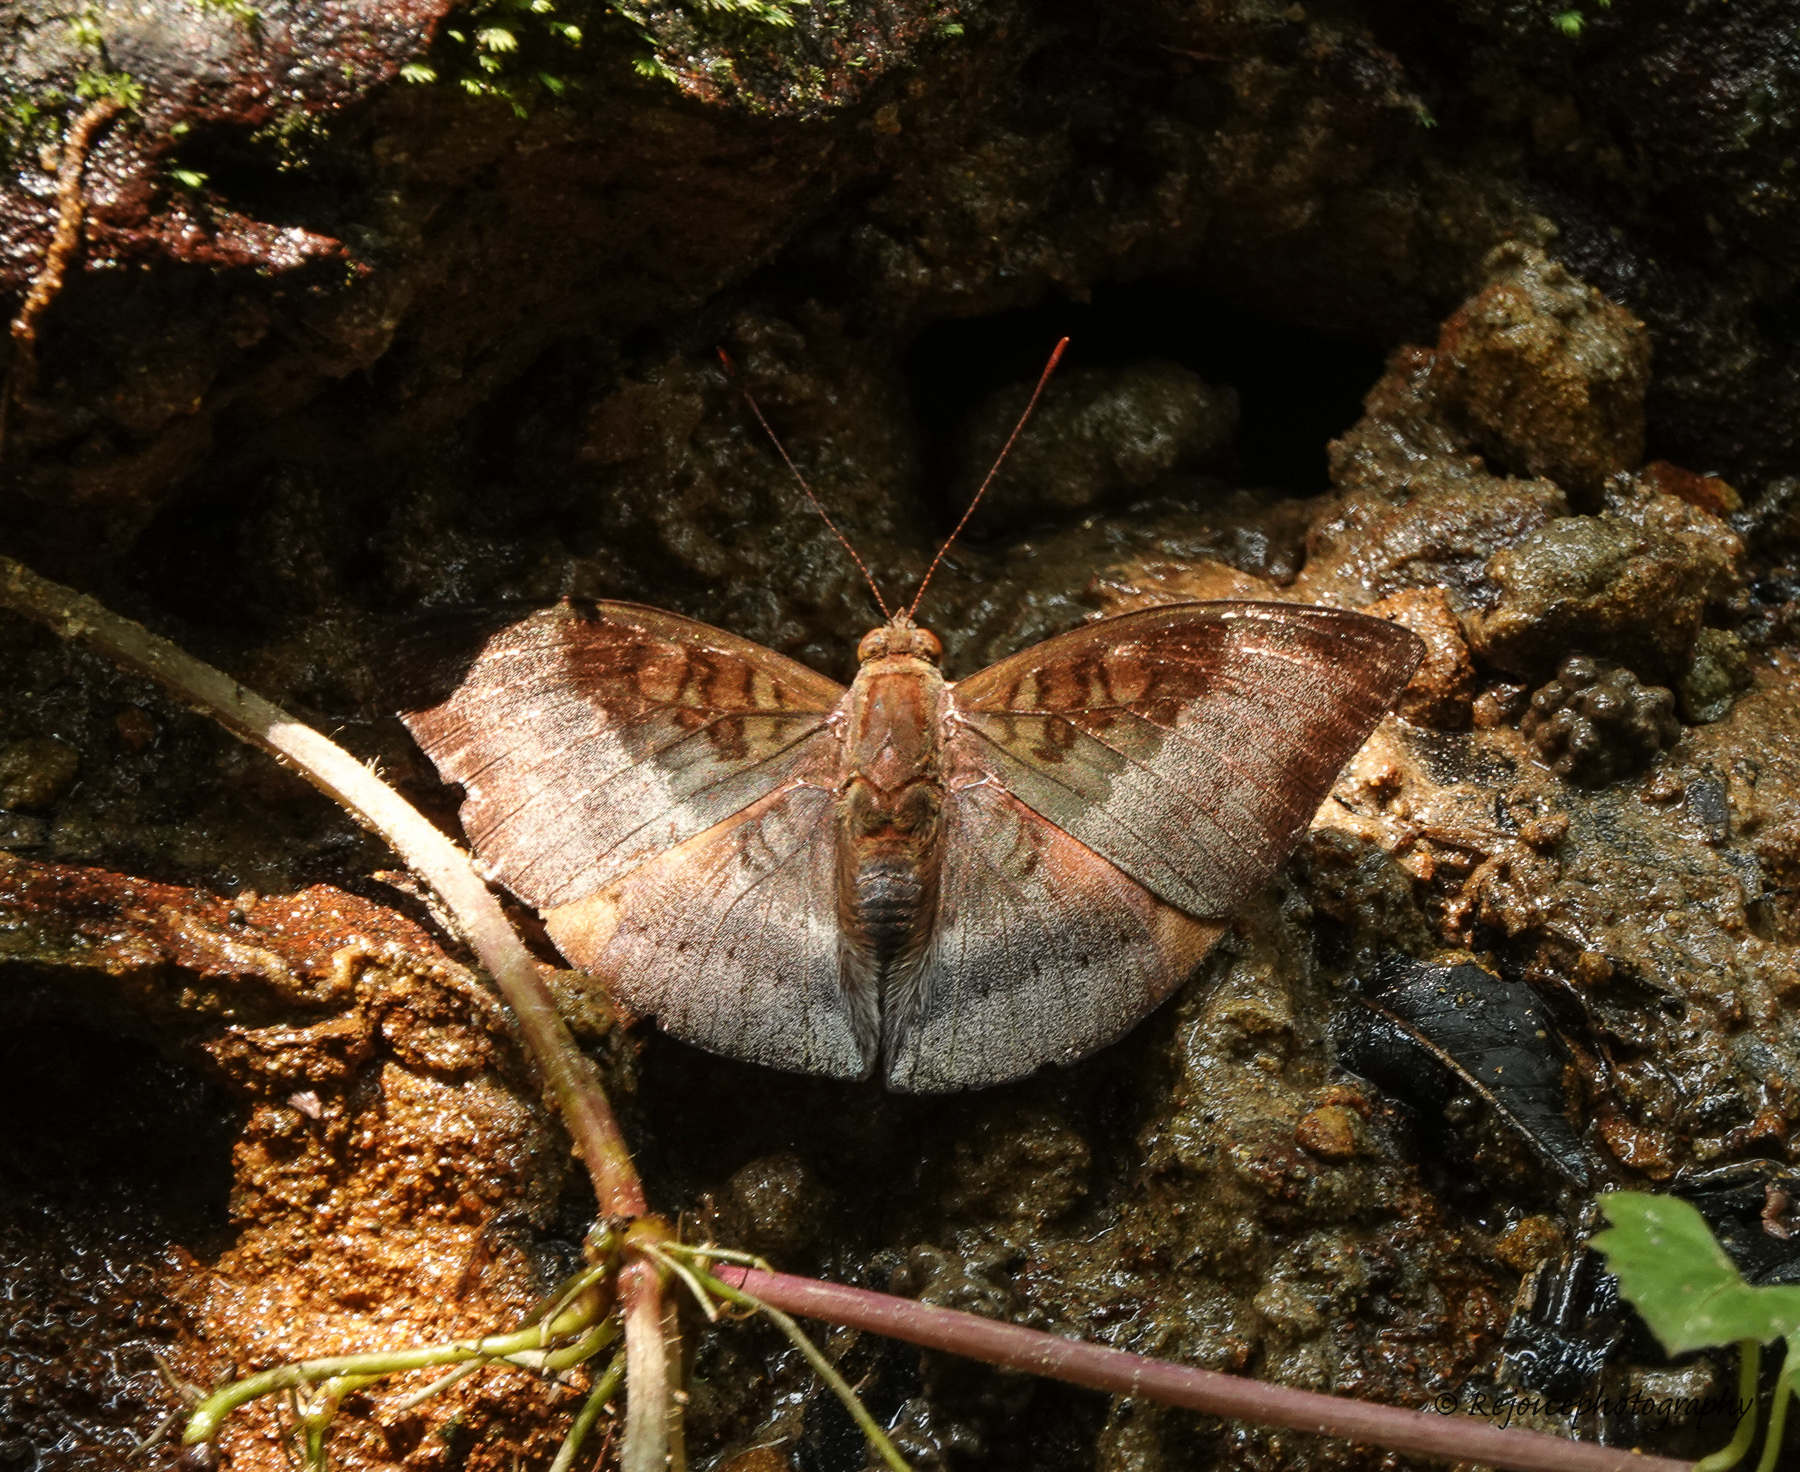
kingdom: Animalia
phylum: Arthropoda
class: Insecta
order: Lepidoptera
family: Nymphalidae
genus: Euthalia
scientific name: Euthalia monina
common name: Powdered baron
